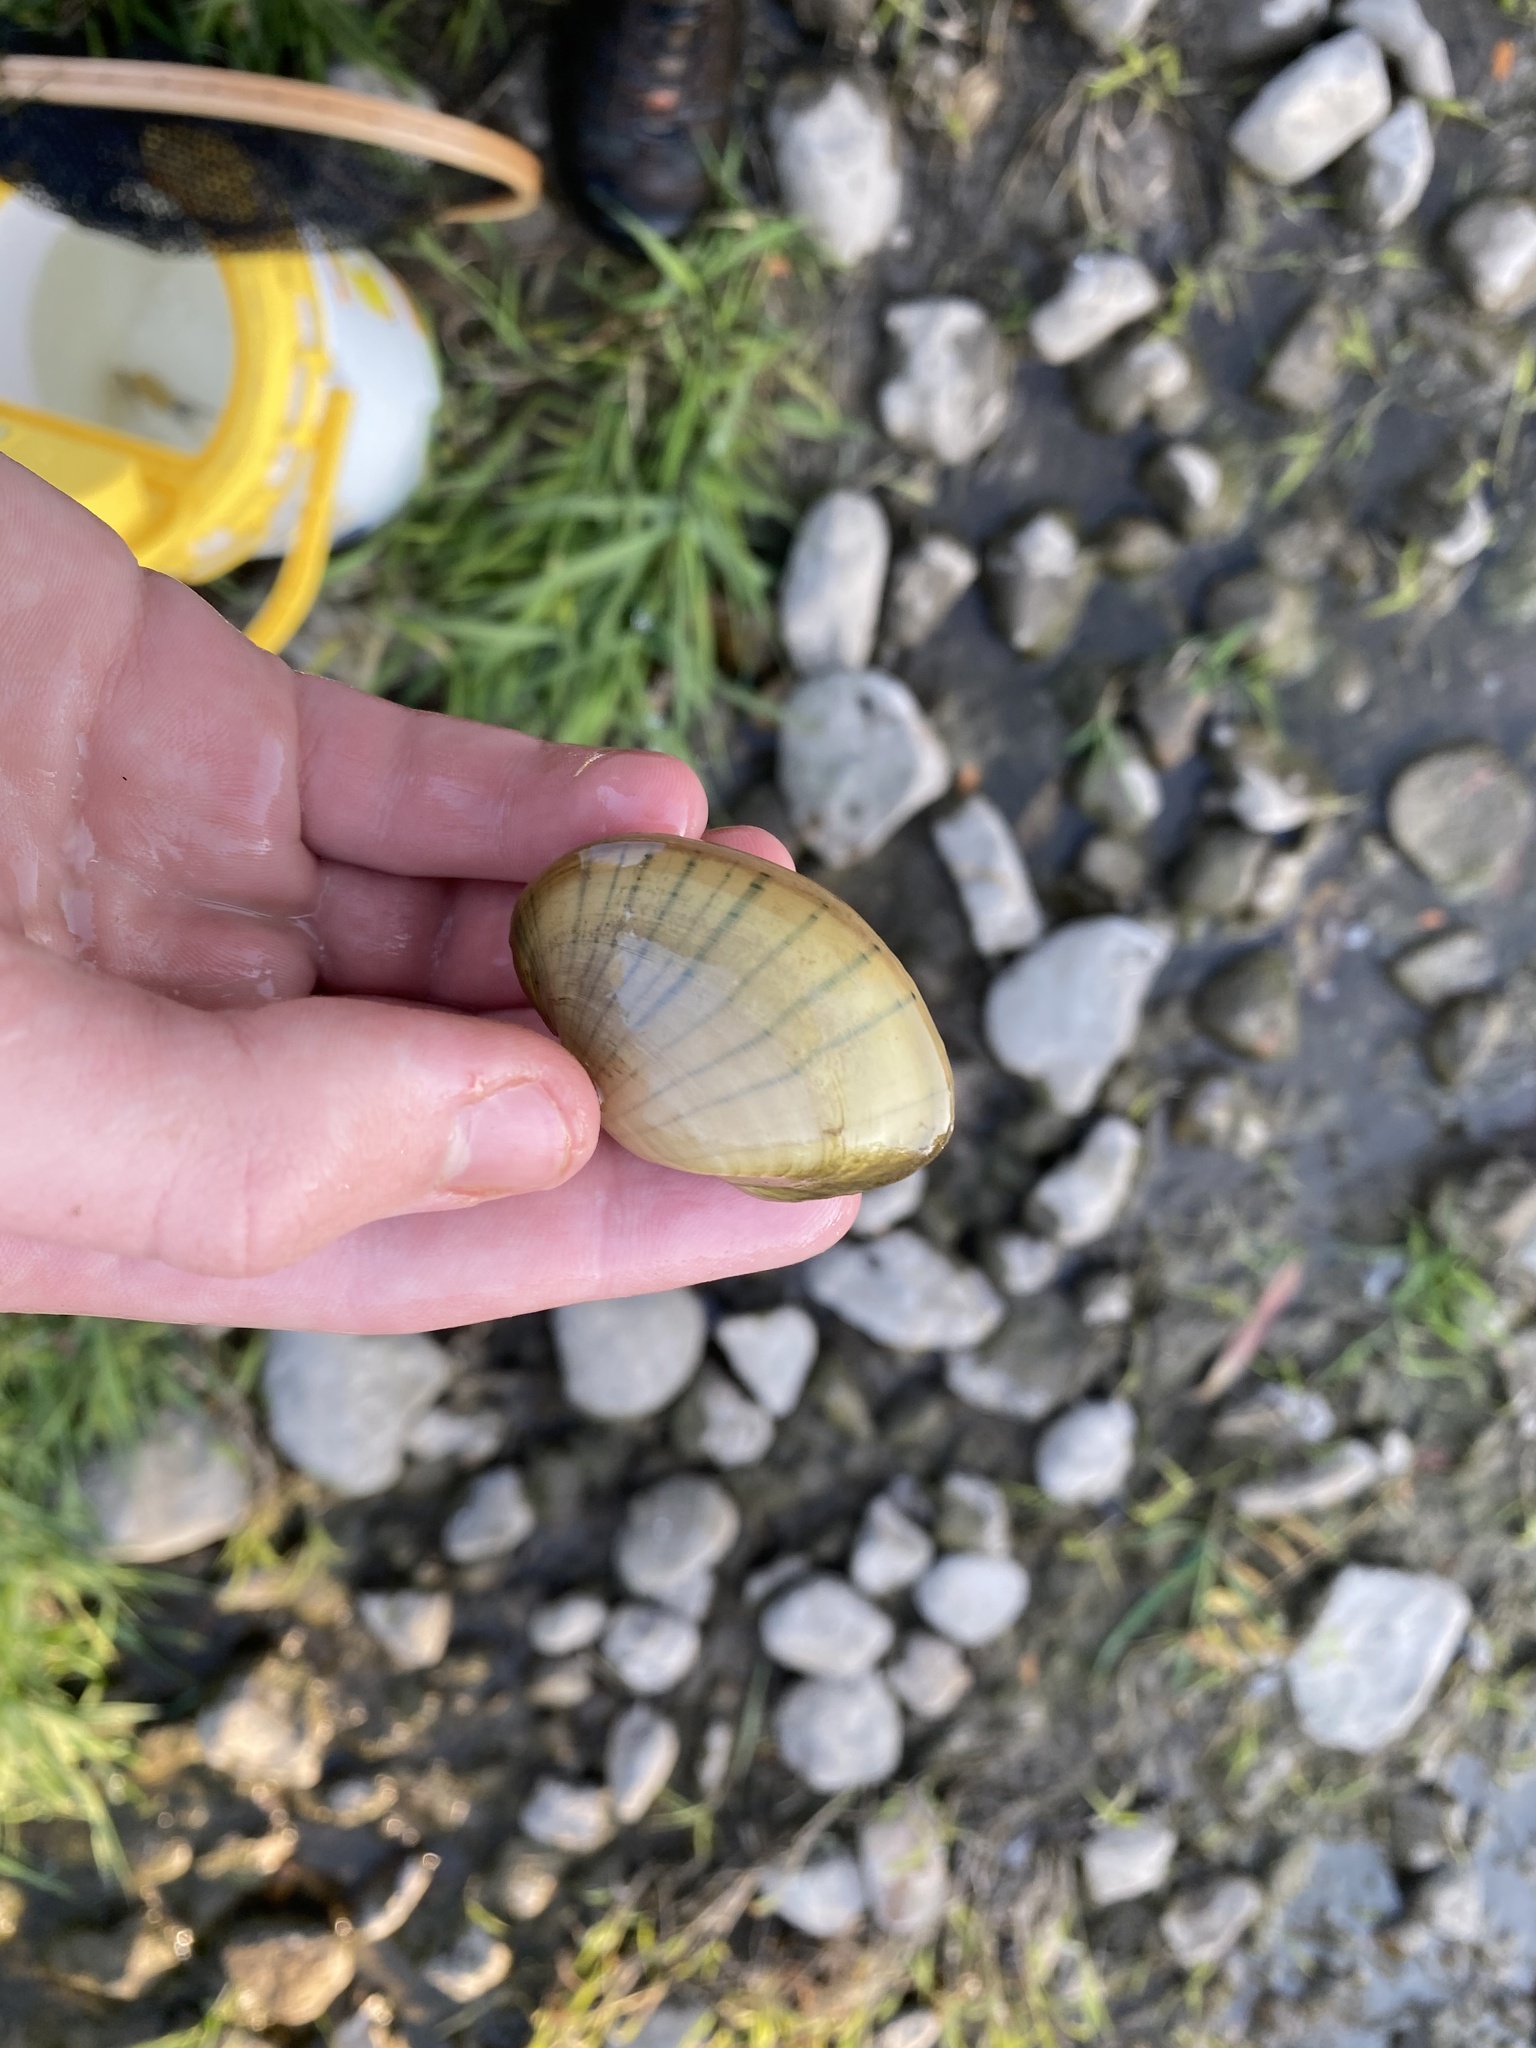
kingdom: Animalia
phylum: Mollusca
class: Bivalvia
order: Unionida
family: Unionidae
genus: Lampsilis
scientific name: Lampsilis cardium
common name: Plain pocketbook
